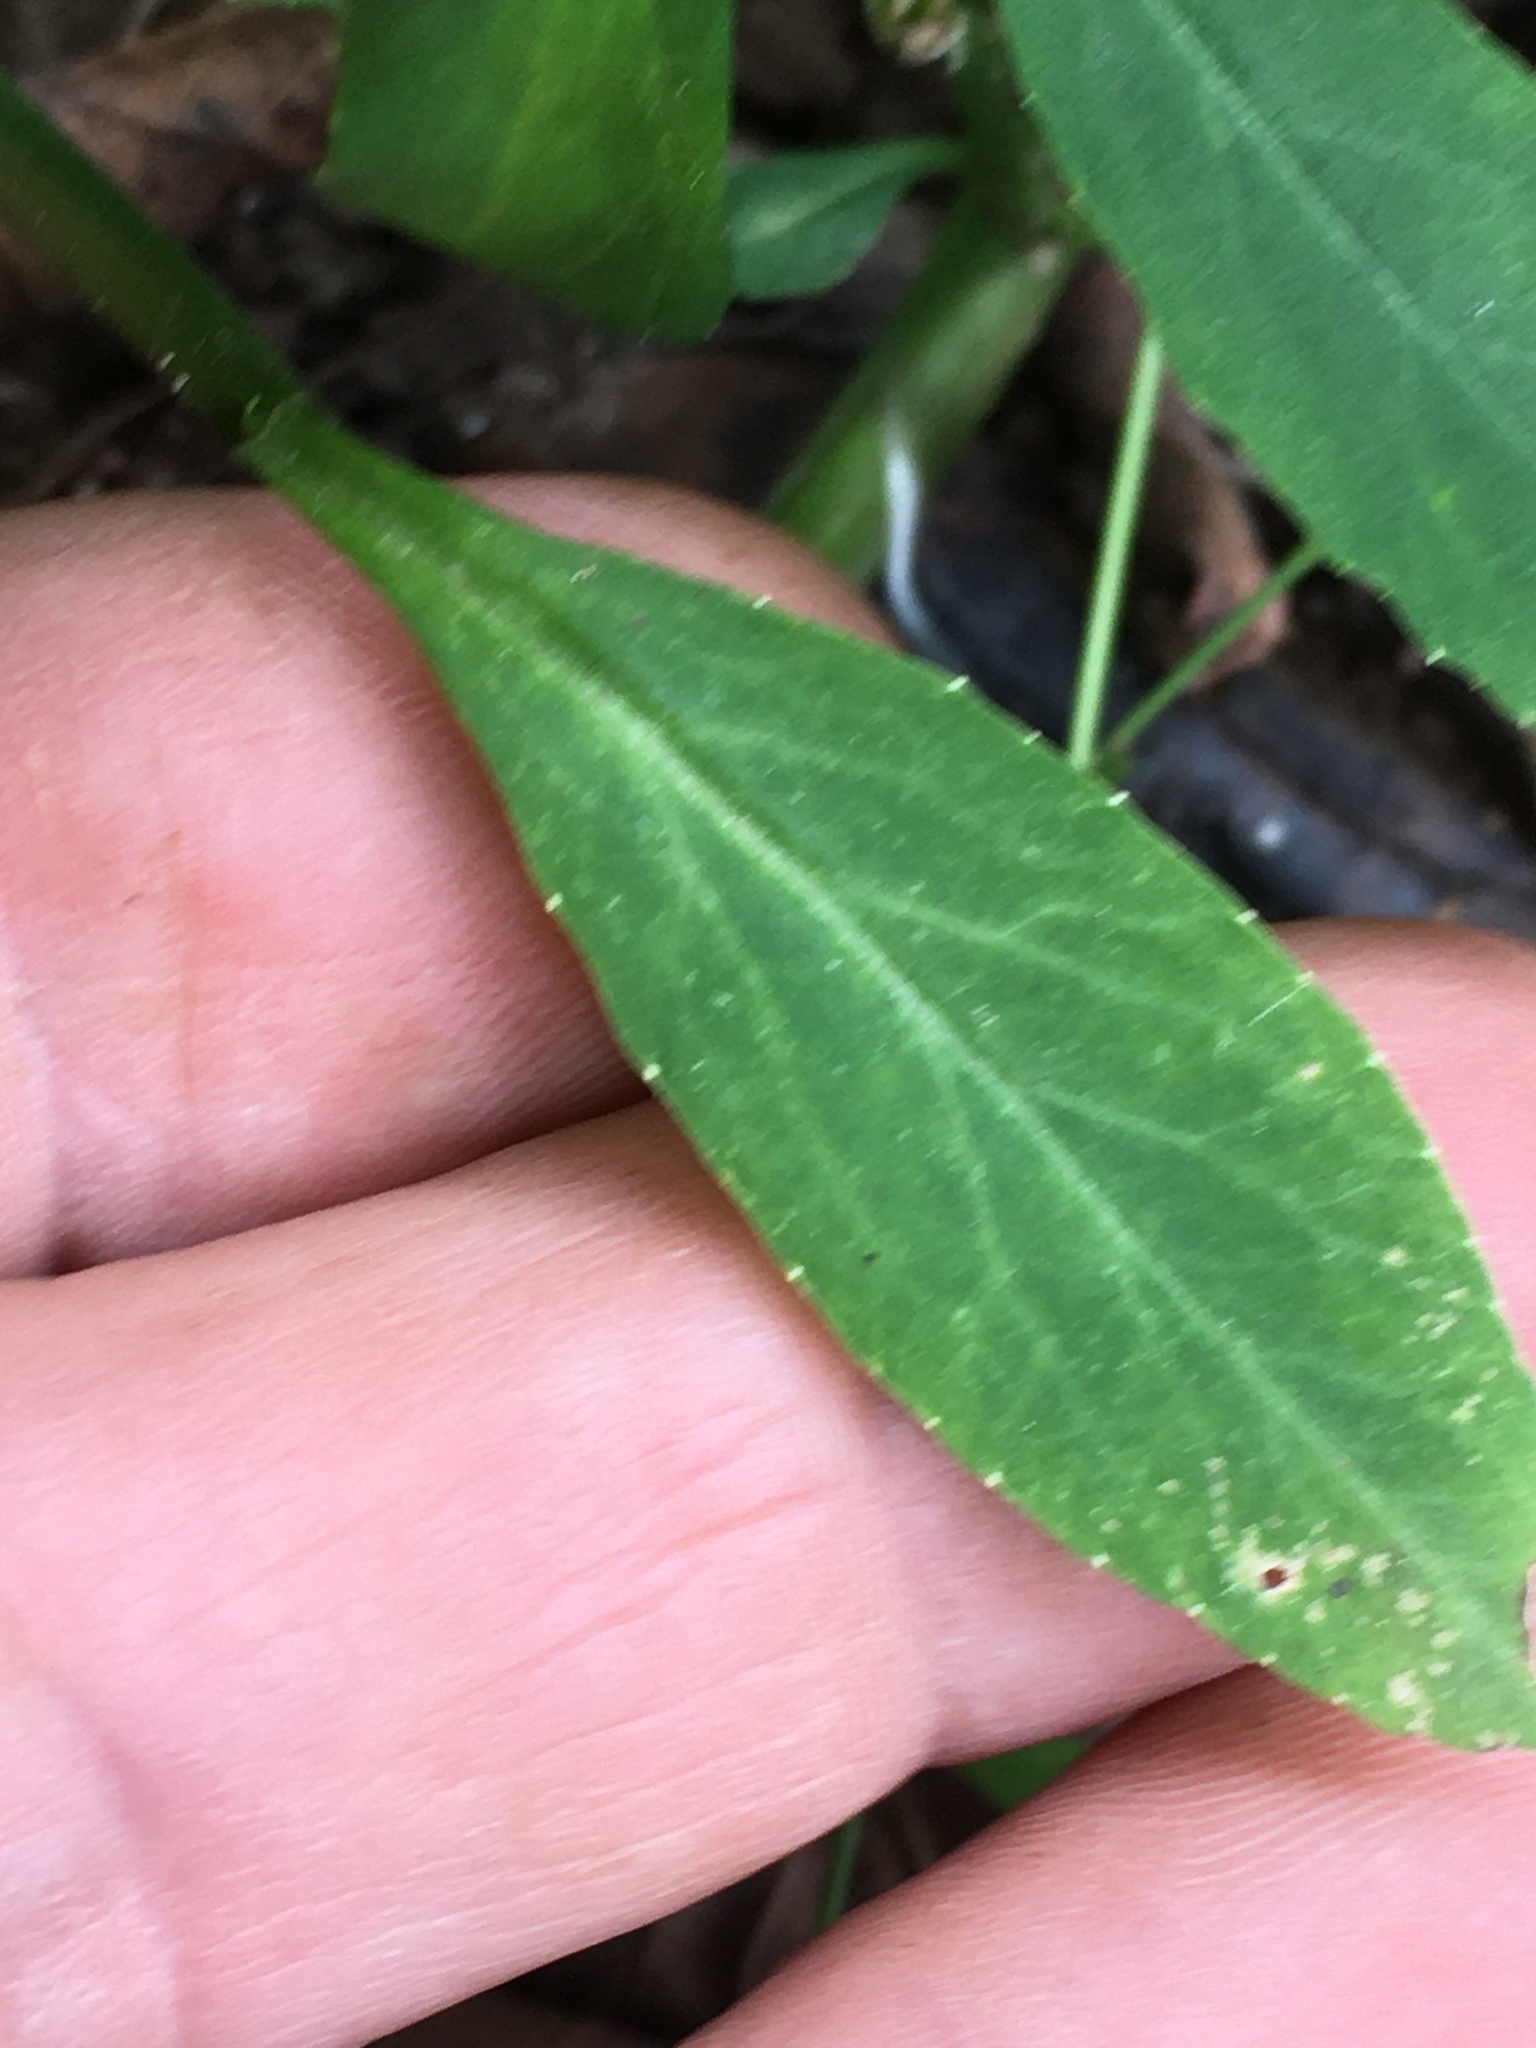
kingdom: Plantae
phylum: Tracheophyta
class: Magnoliopsida
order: Asterales
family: Campanulaceae
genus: Lobelia
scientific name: Lobelia amoena
